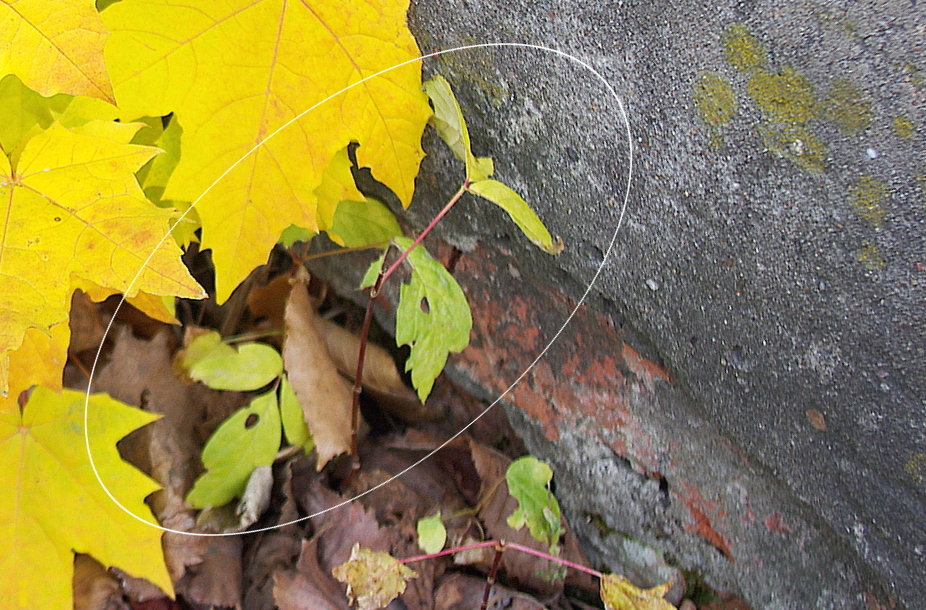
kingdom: Plantae
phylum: Tracheophyta
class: Magnoliopsida
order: Sapindales
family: Sapindaceae
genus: Acer
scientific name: Acer negundo
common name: Ashleaf maple
